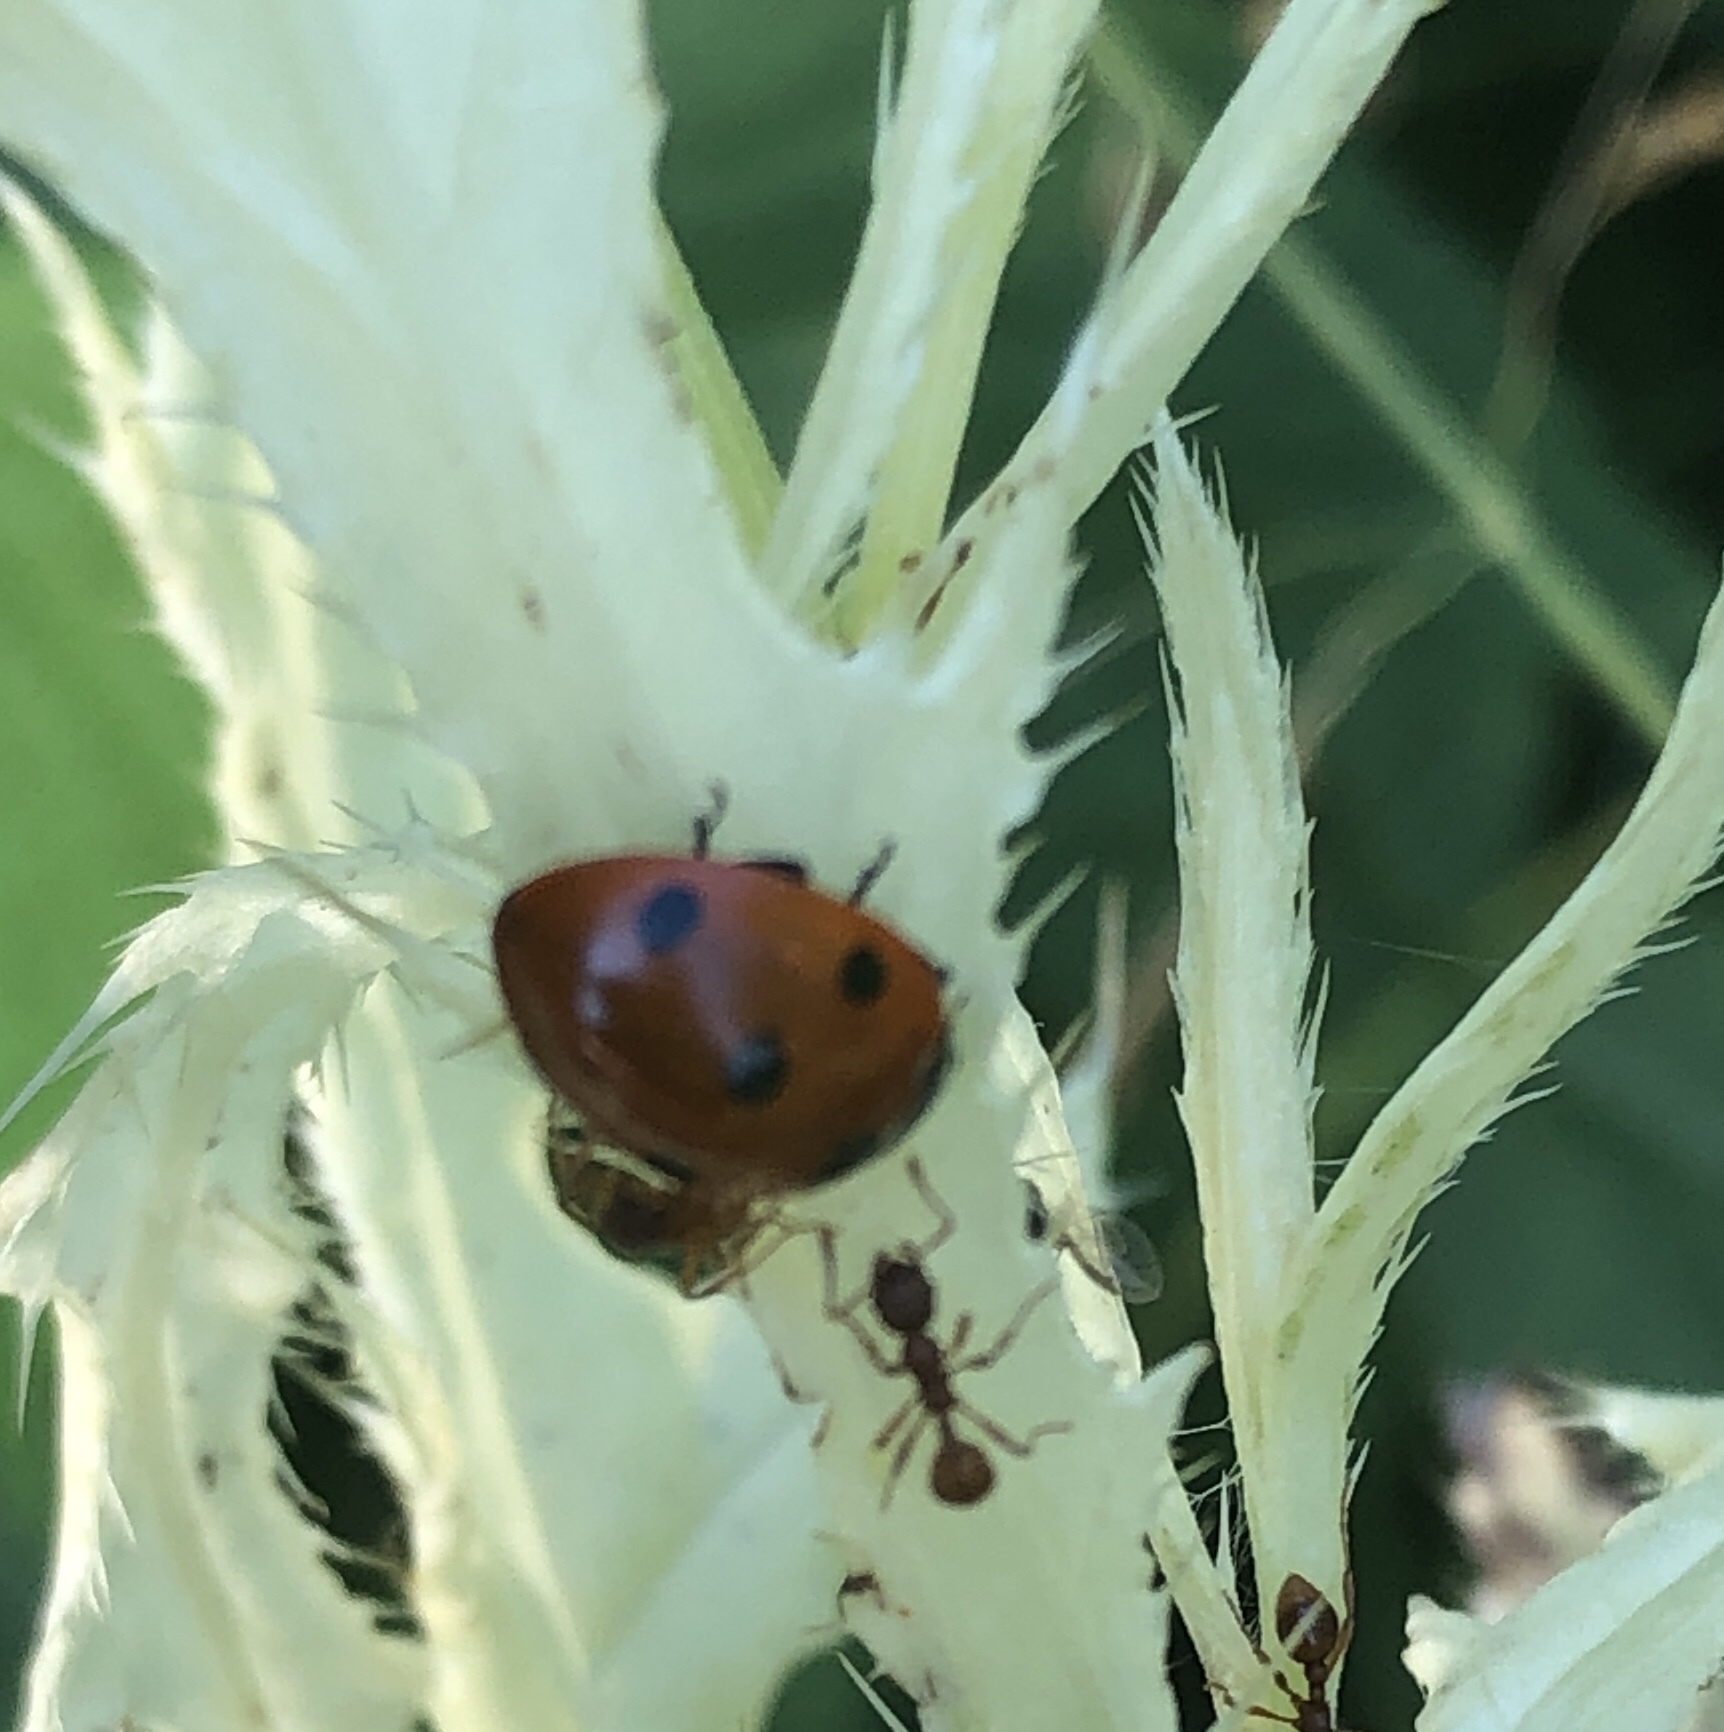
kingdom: Animalia
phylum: Arthropoda
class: Insecta
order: Coleoptera
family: Coccinellidae
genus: Coccinella
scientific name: Coccinella septempunctata
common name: Sevenspotted lady beetle
